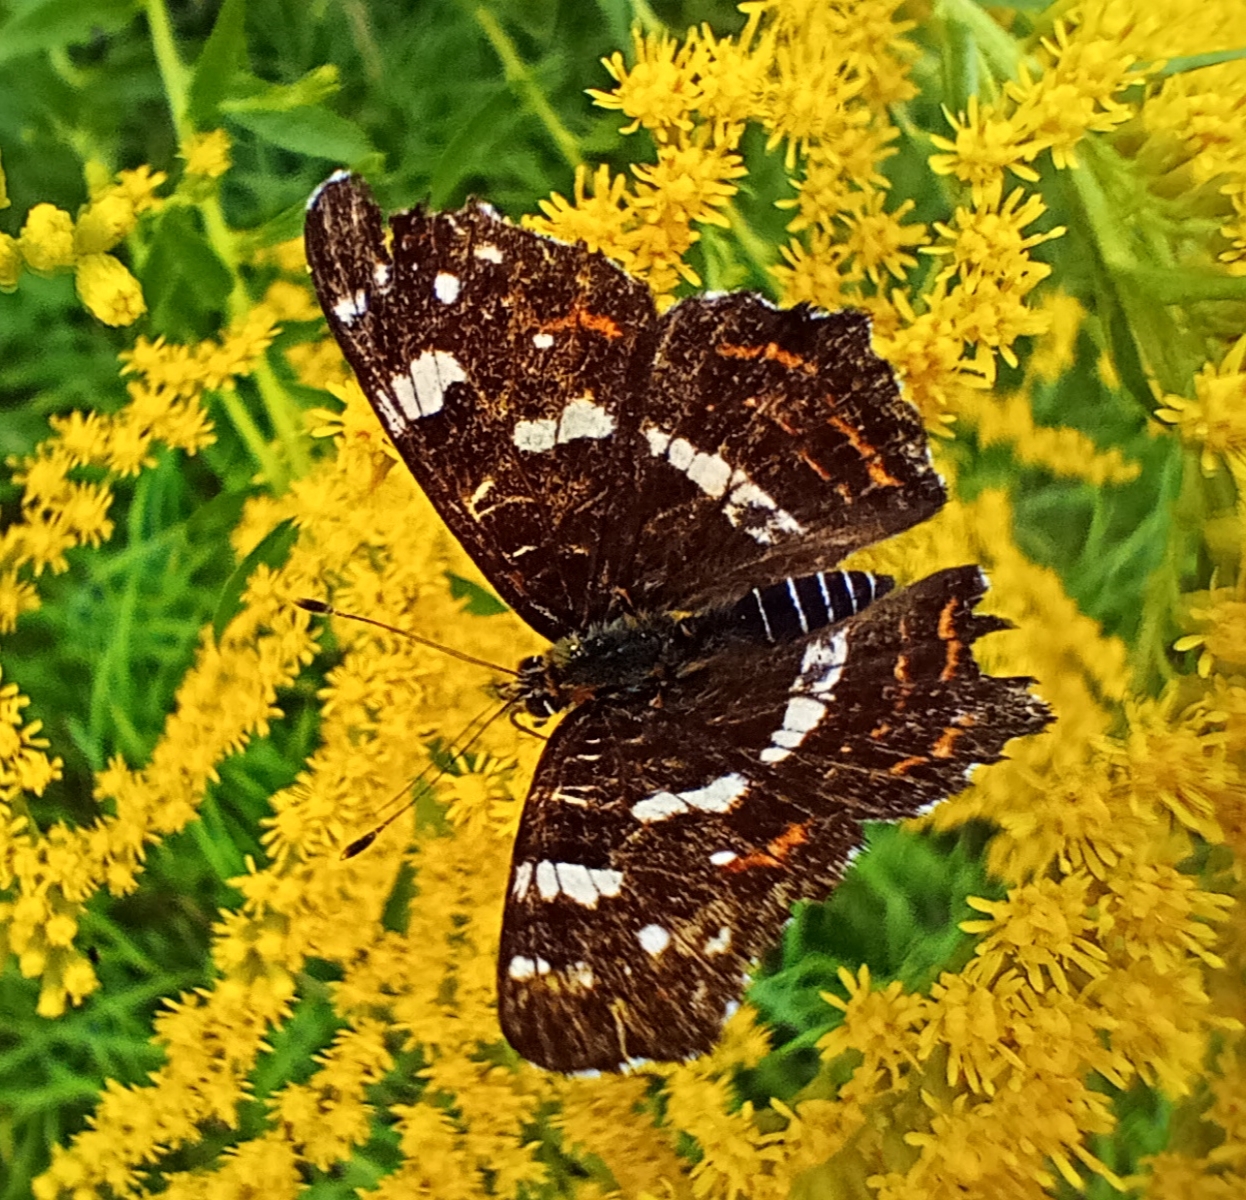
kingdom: Animalia
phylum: Arthropoda
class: Insecta
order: Lepidoptera
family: Nymphalidae
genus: Araschnia
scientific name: Araschnia levana
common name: Map butterfly
